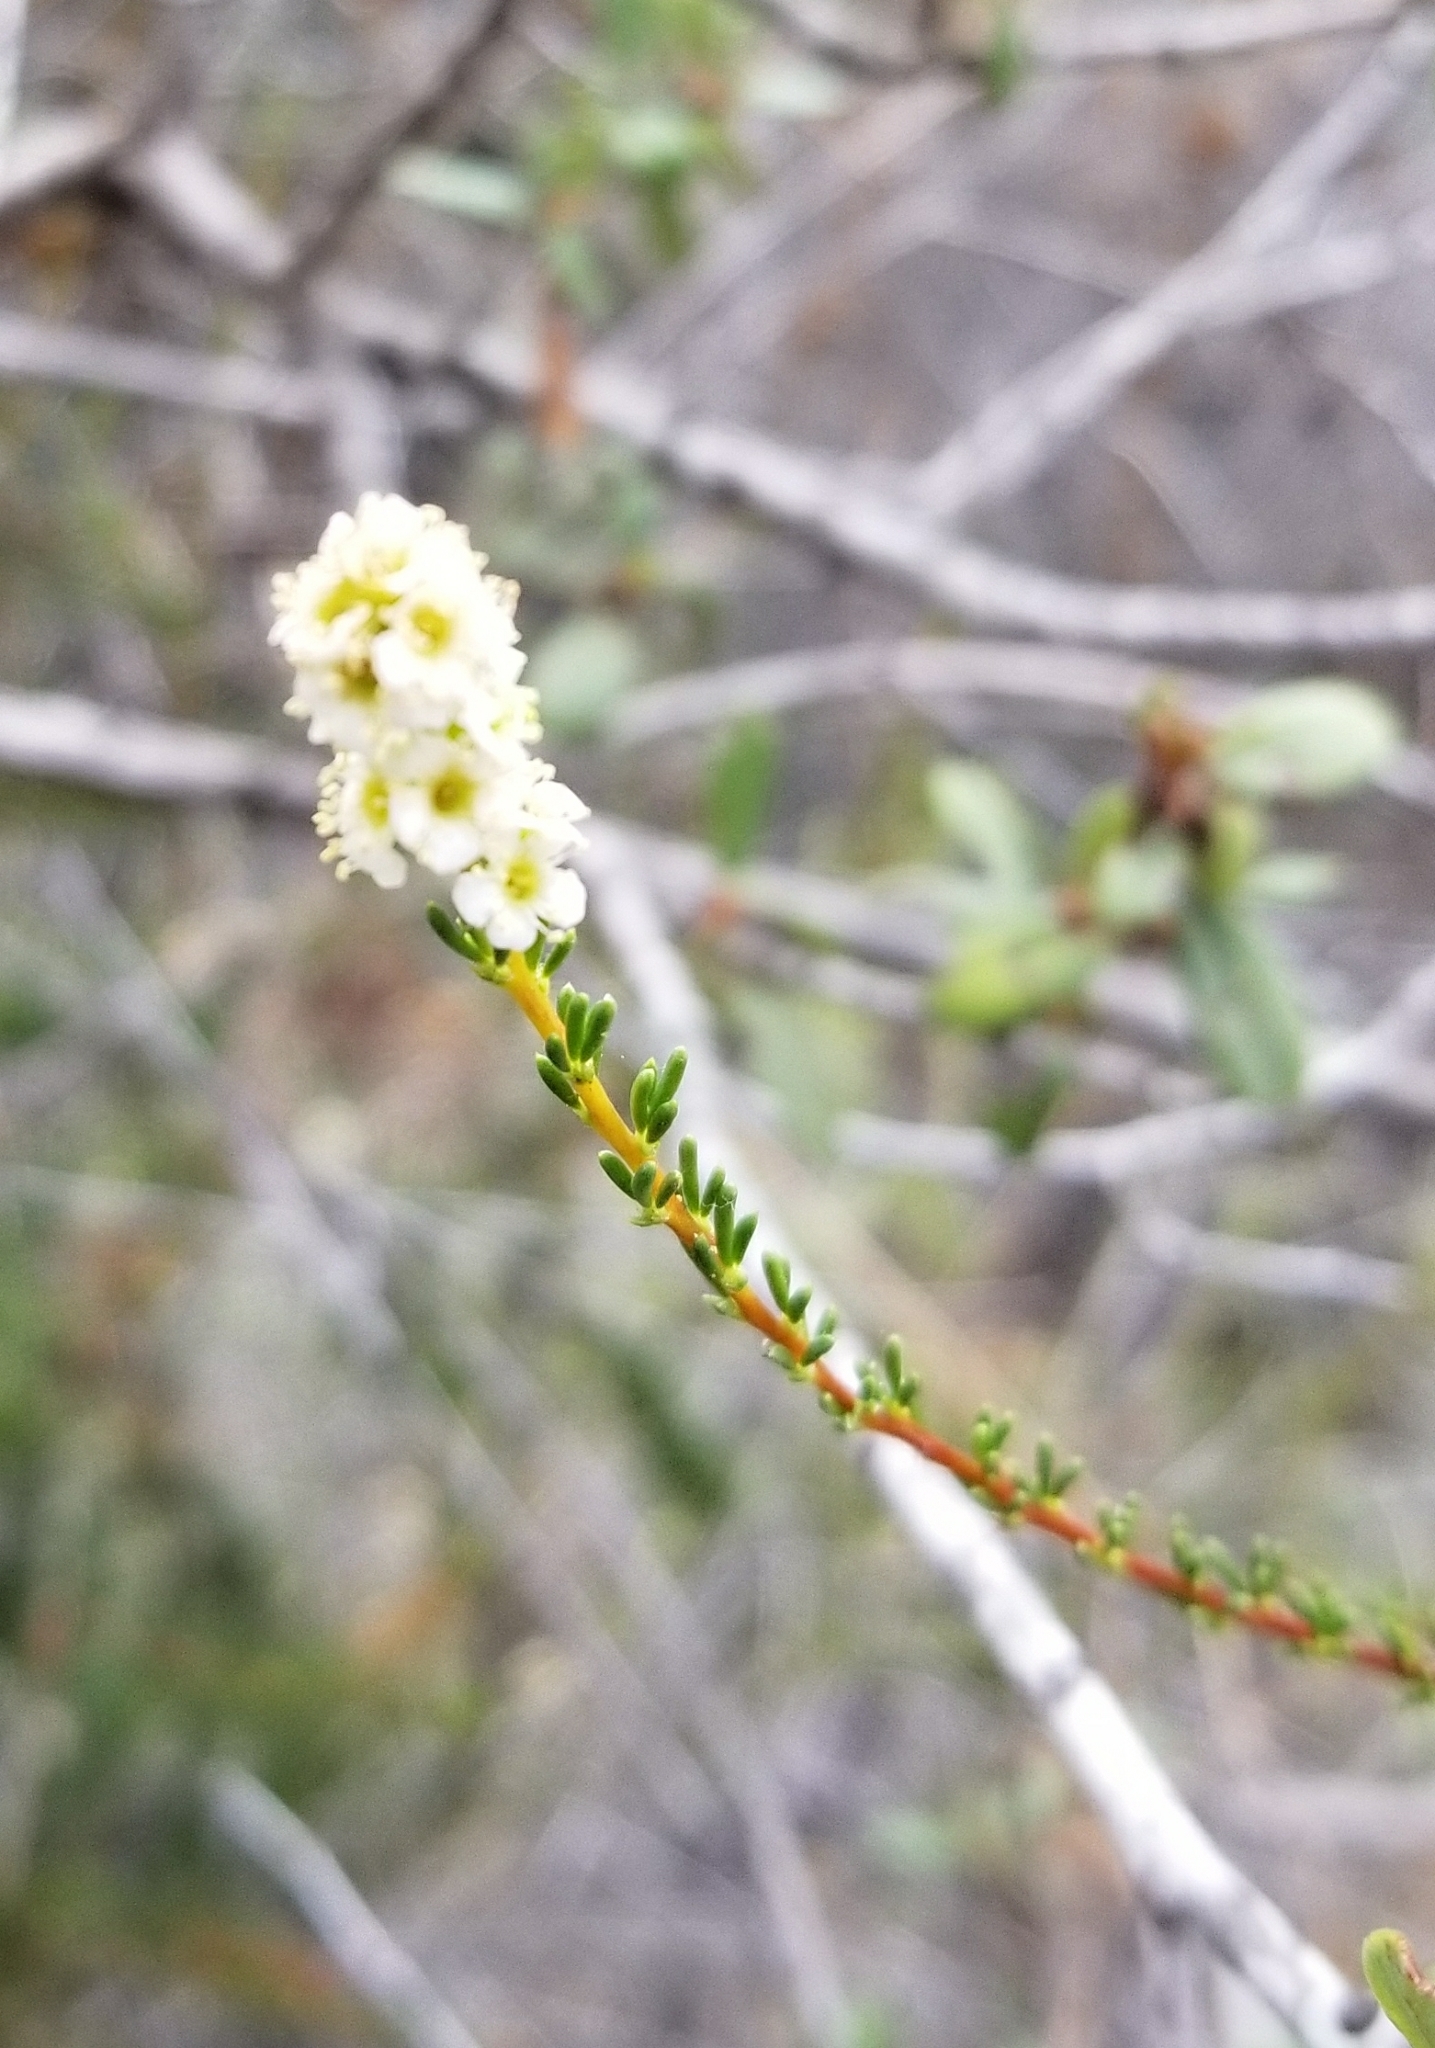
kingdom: Plantae
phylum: Tracheophyta
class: Magnoliopsida
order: Rosales
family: Rosaceae
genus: Adenostoma
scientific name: Adenostoma fasciculatum
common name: Chamise
